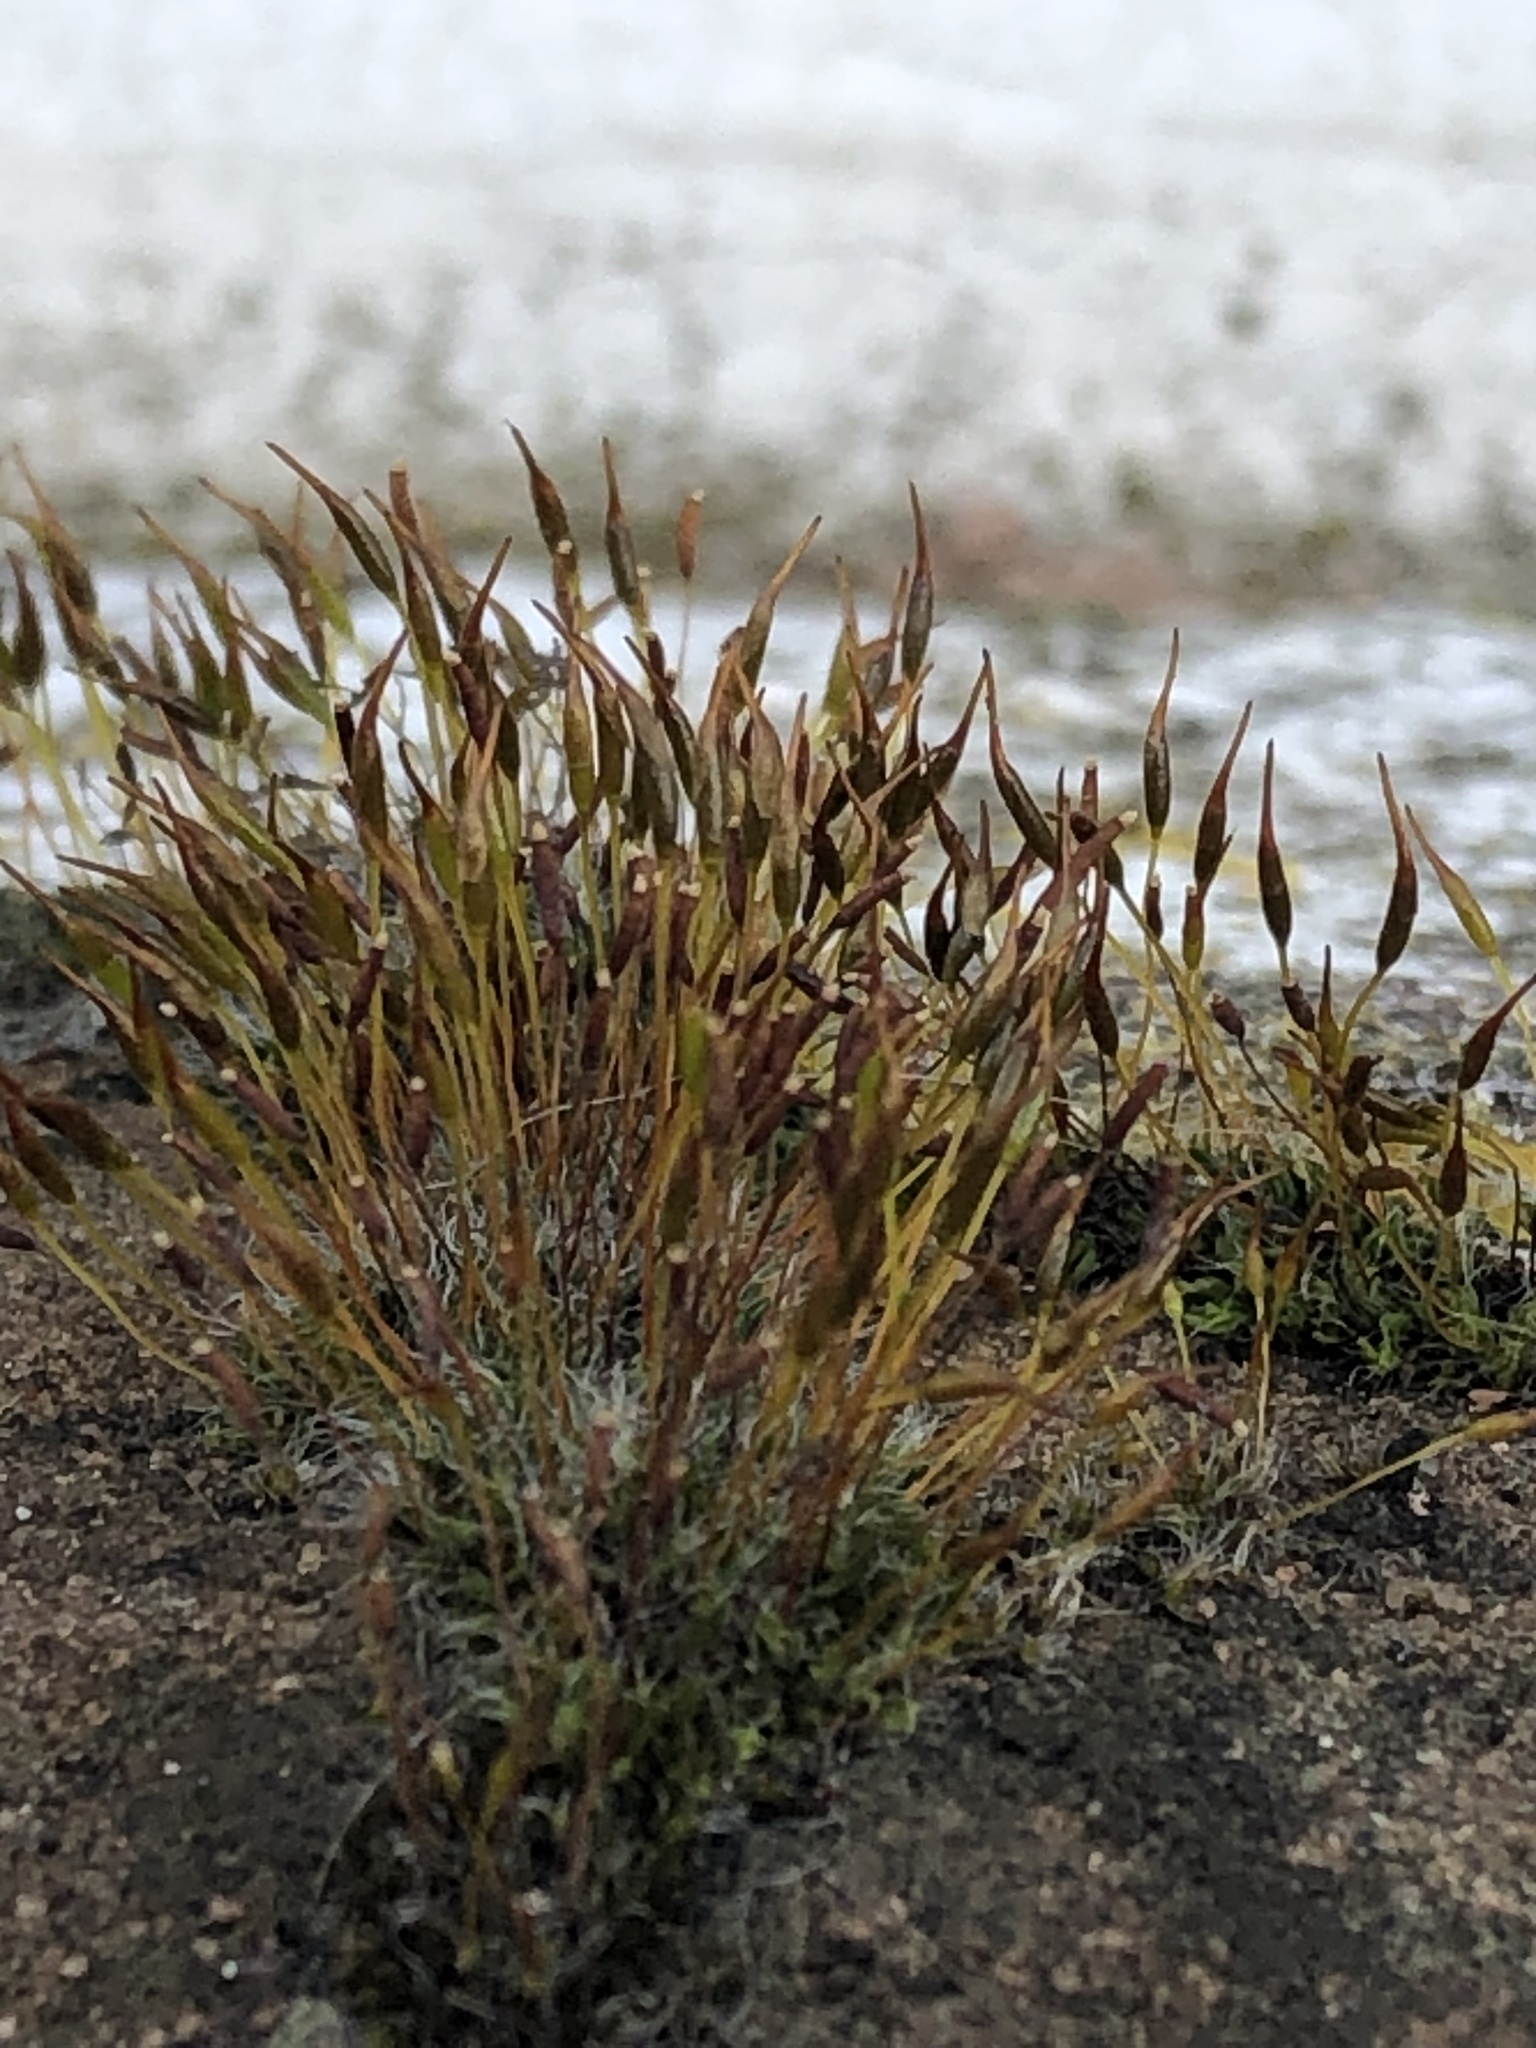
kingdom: Plantae
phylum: Bryophyta
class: Bryopsida
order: Pottiales
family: Pottiaceae
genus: Tortula
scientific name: Tortula muralis
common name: Wall screw-moss
